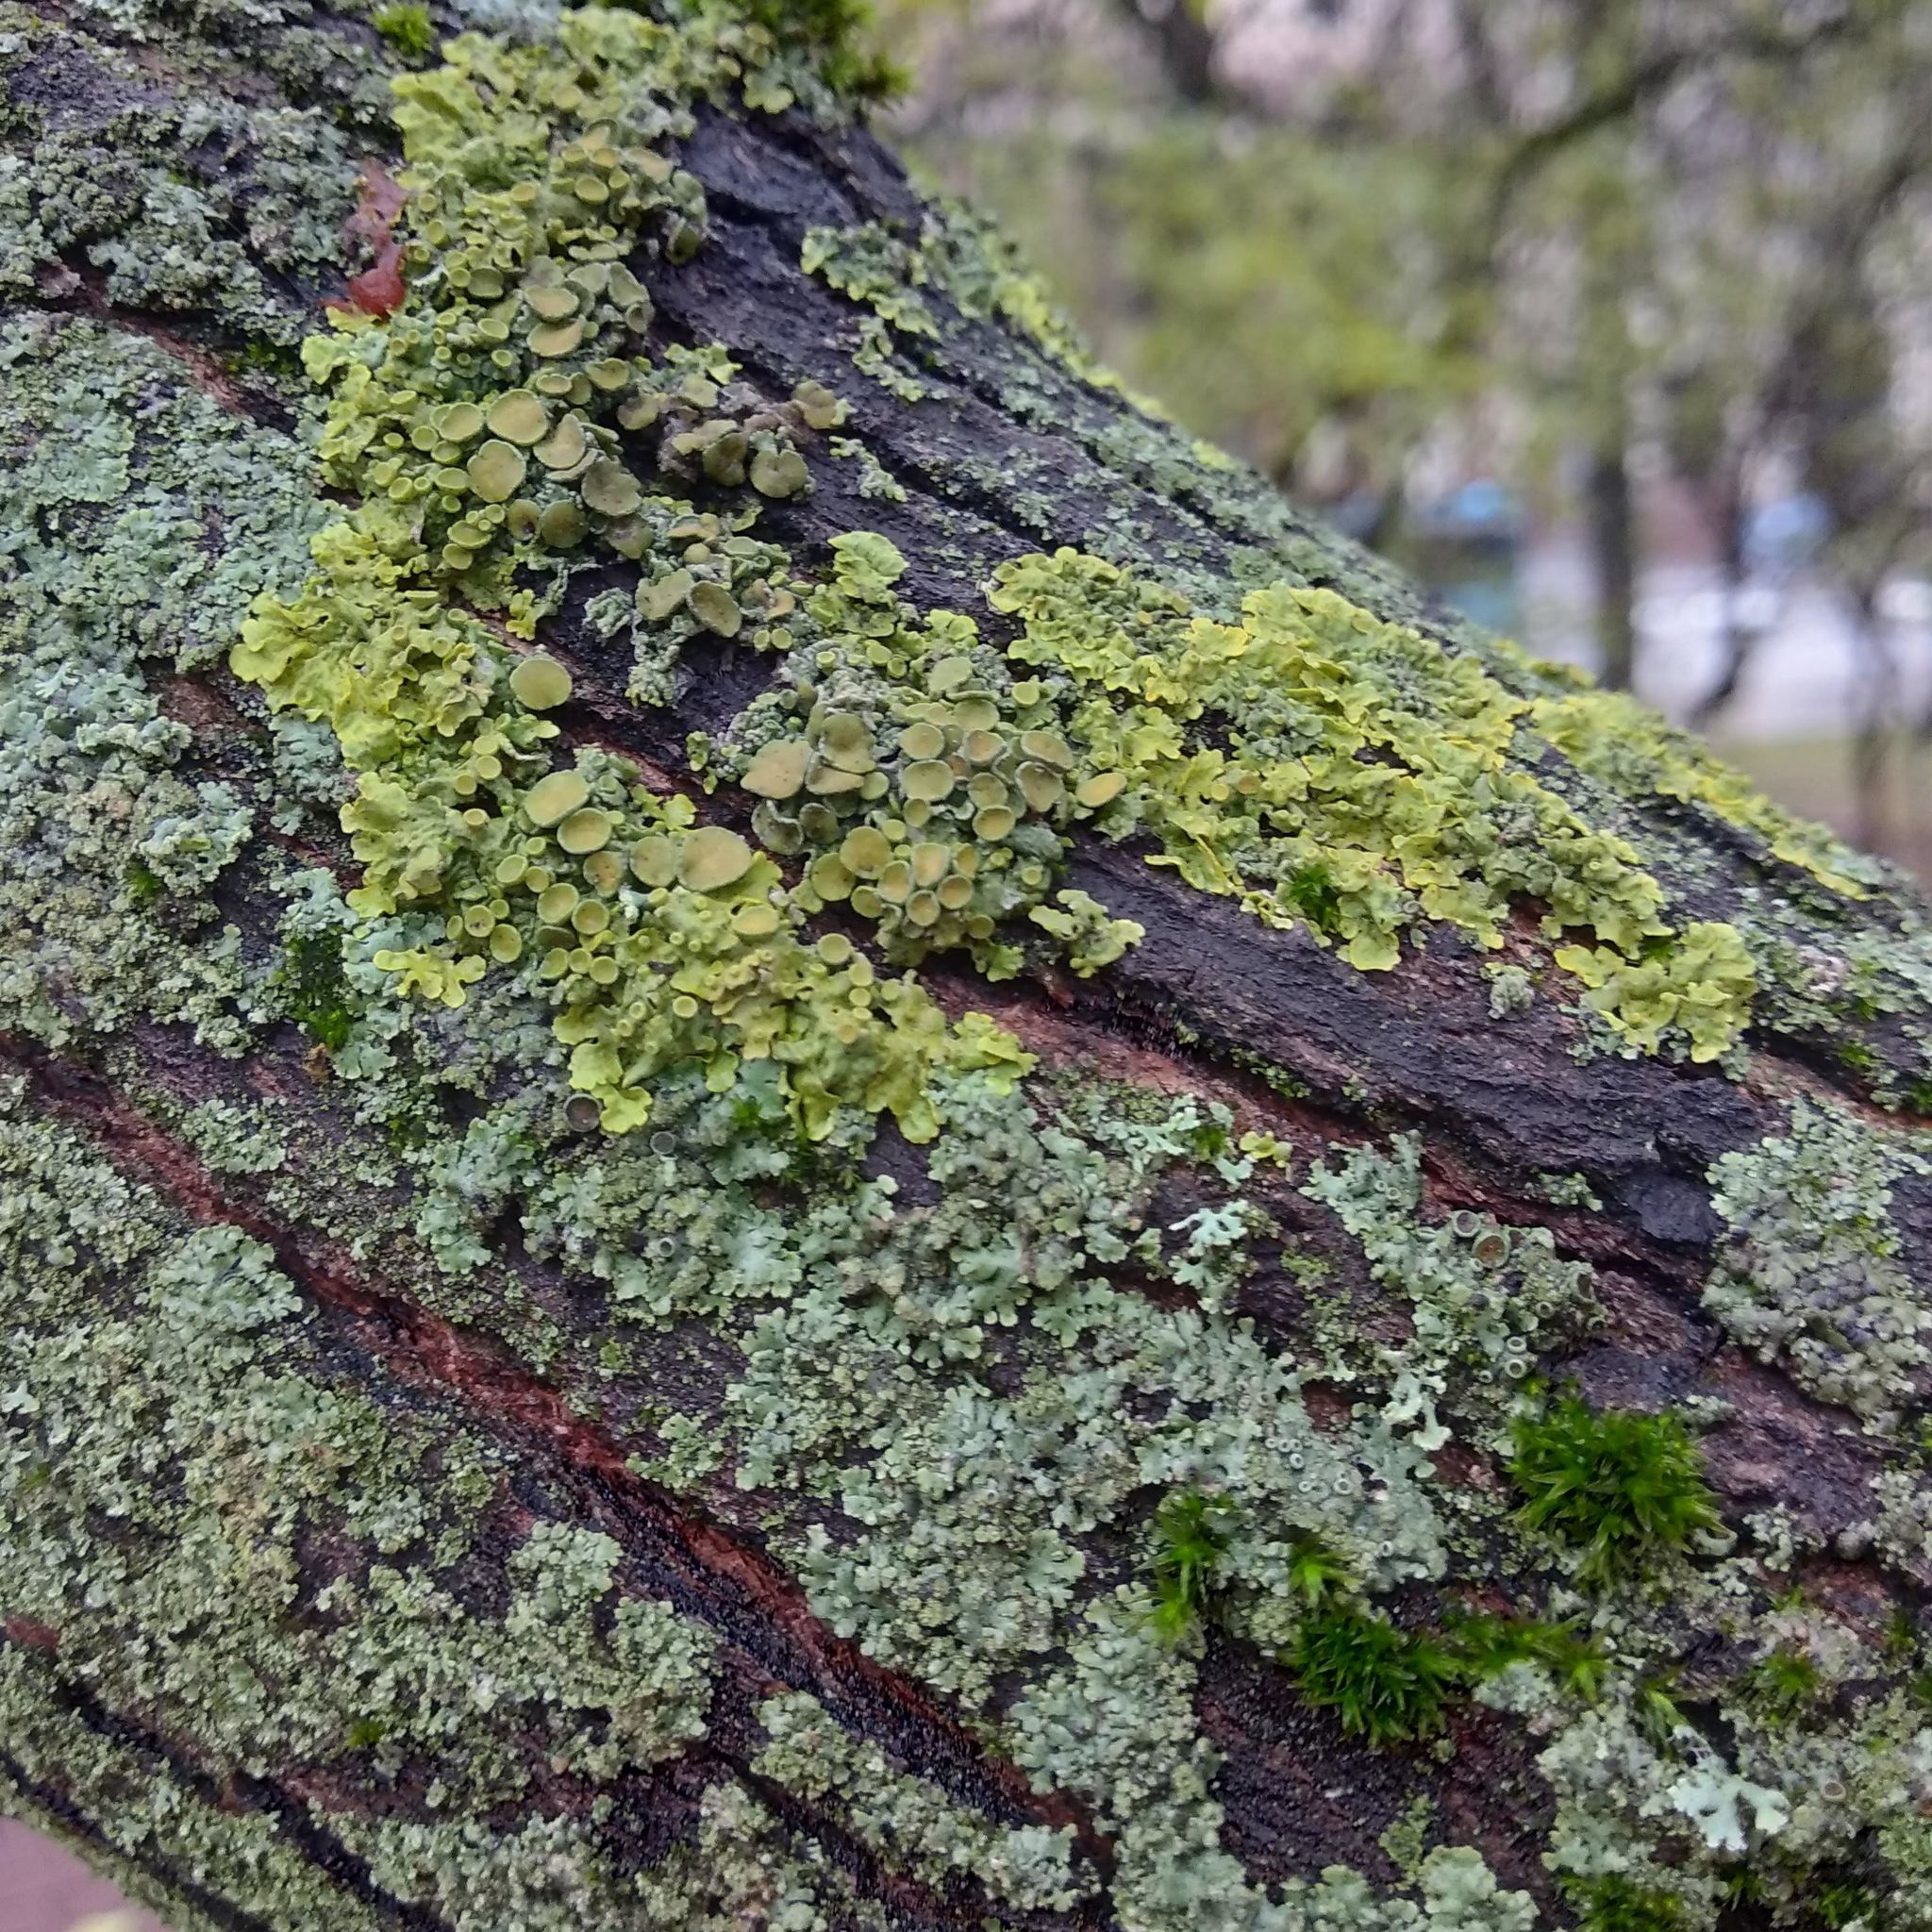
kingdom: Fungi
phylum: Ascomycota
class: Lecanoromycetes
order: Teloschistales
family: Teloschistaceae
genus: Xanthoria
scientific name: Xanthoria parietina
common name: Common orange lichen
